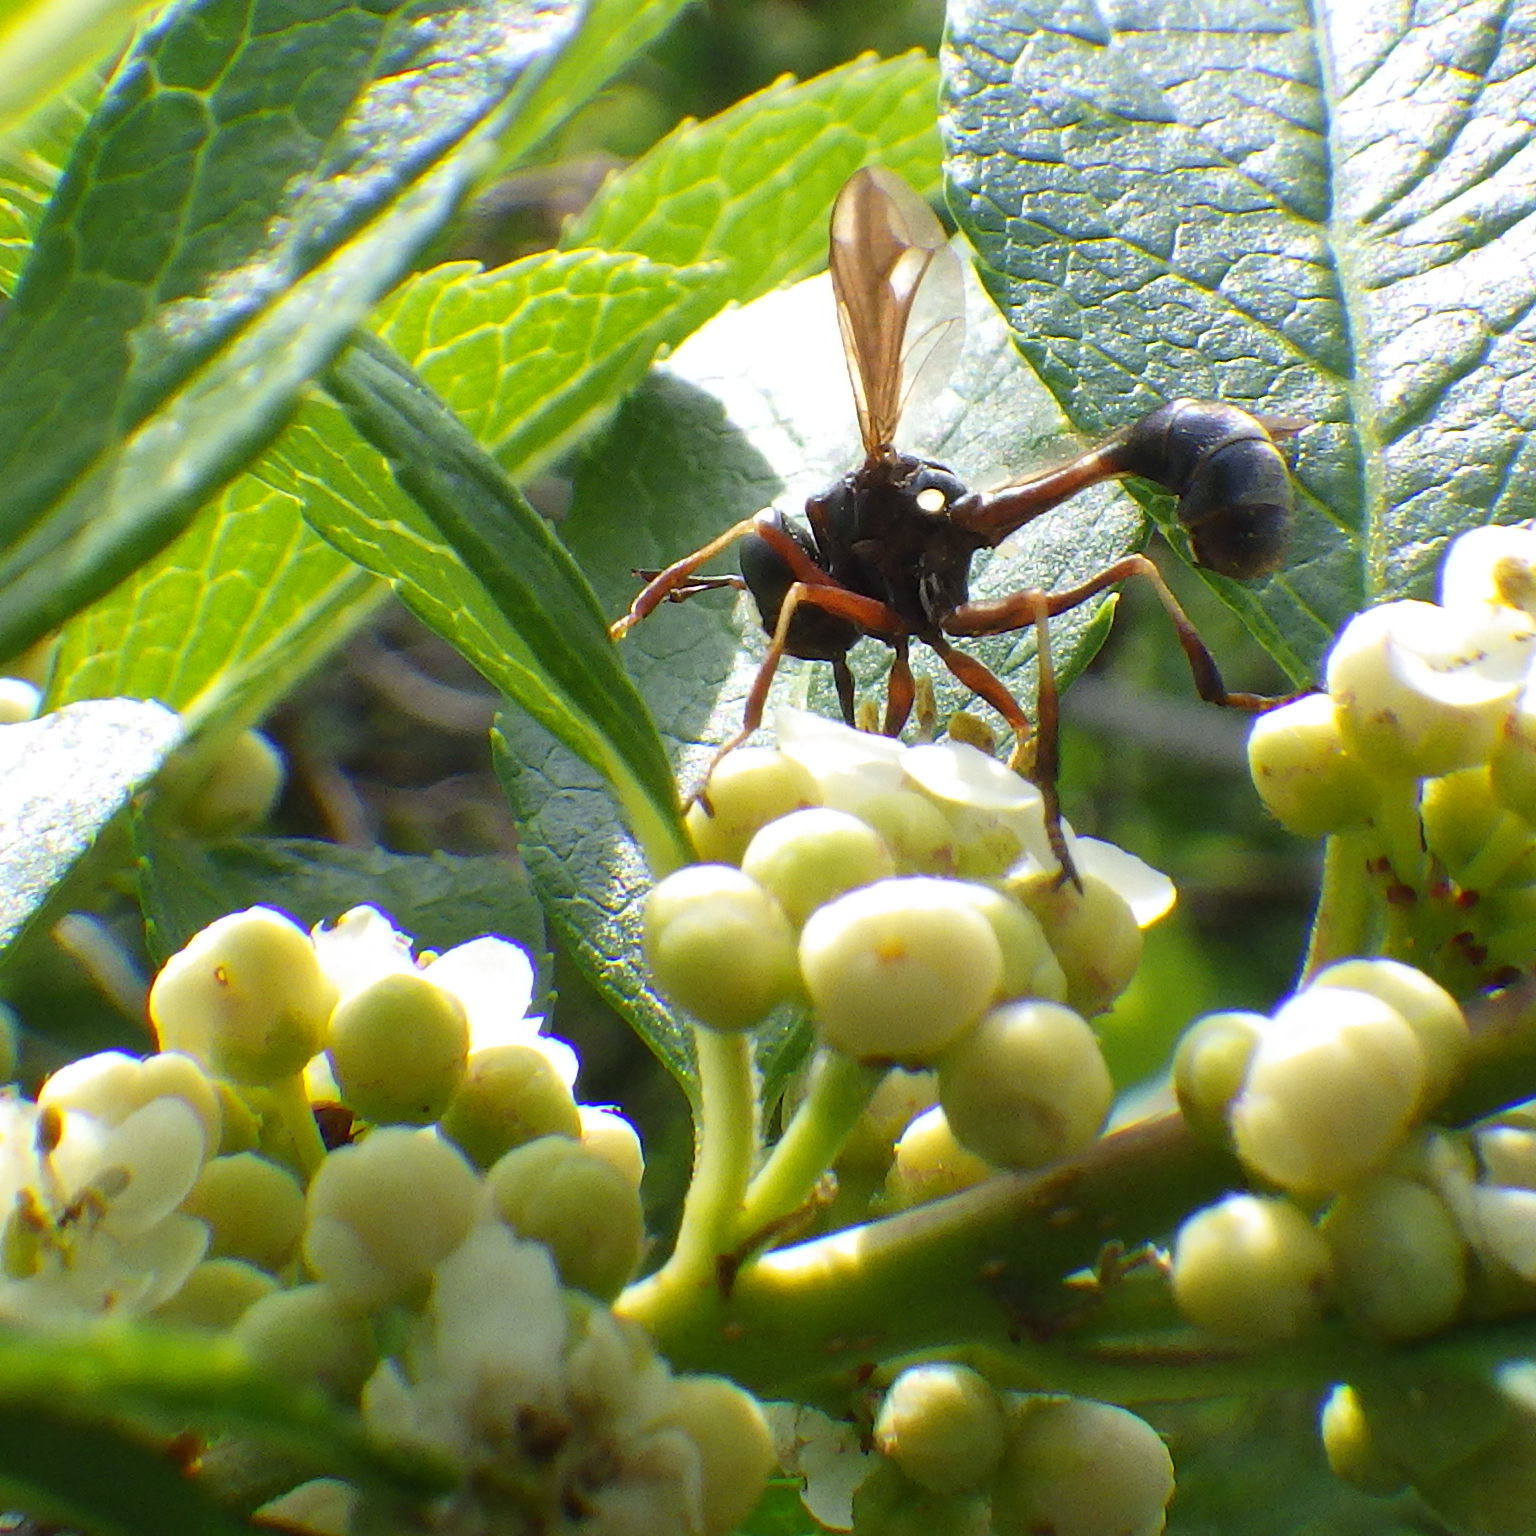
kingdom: Animalia
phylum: Arthropoda
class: Insecta
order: Diptera
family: Conopidae
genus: Physocephala
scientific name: Physocephala furcillata
